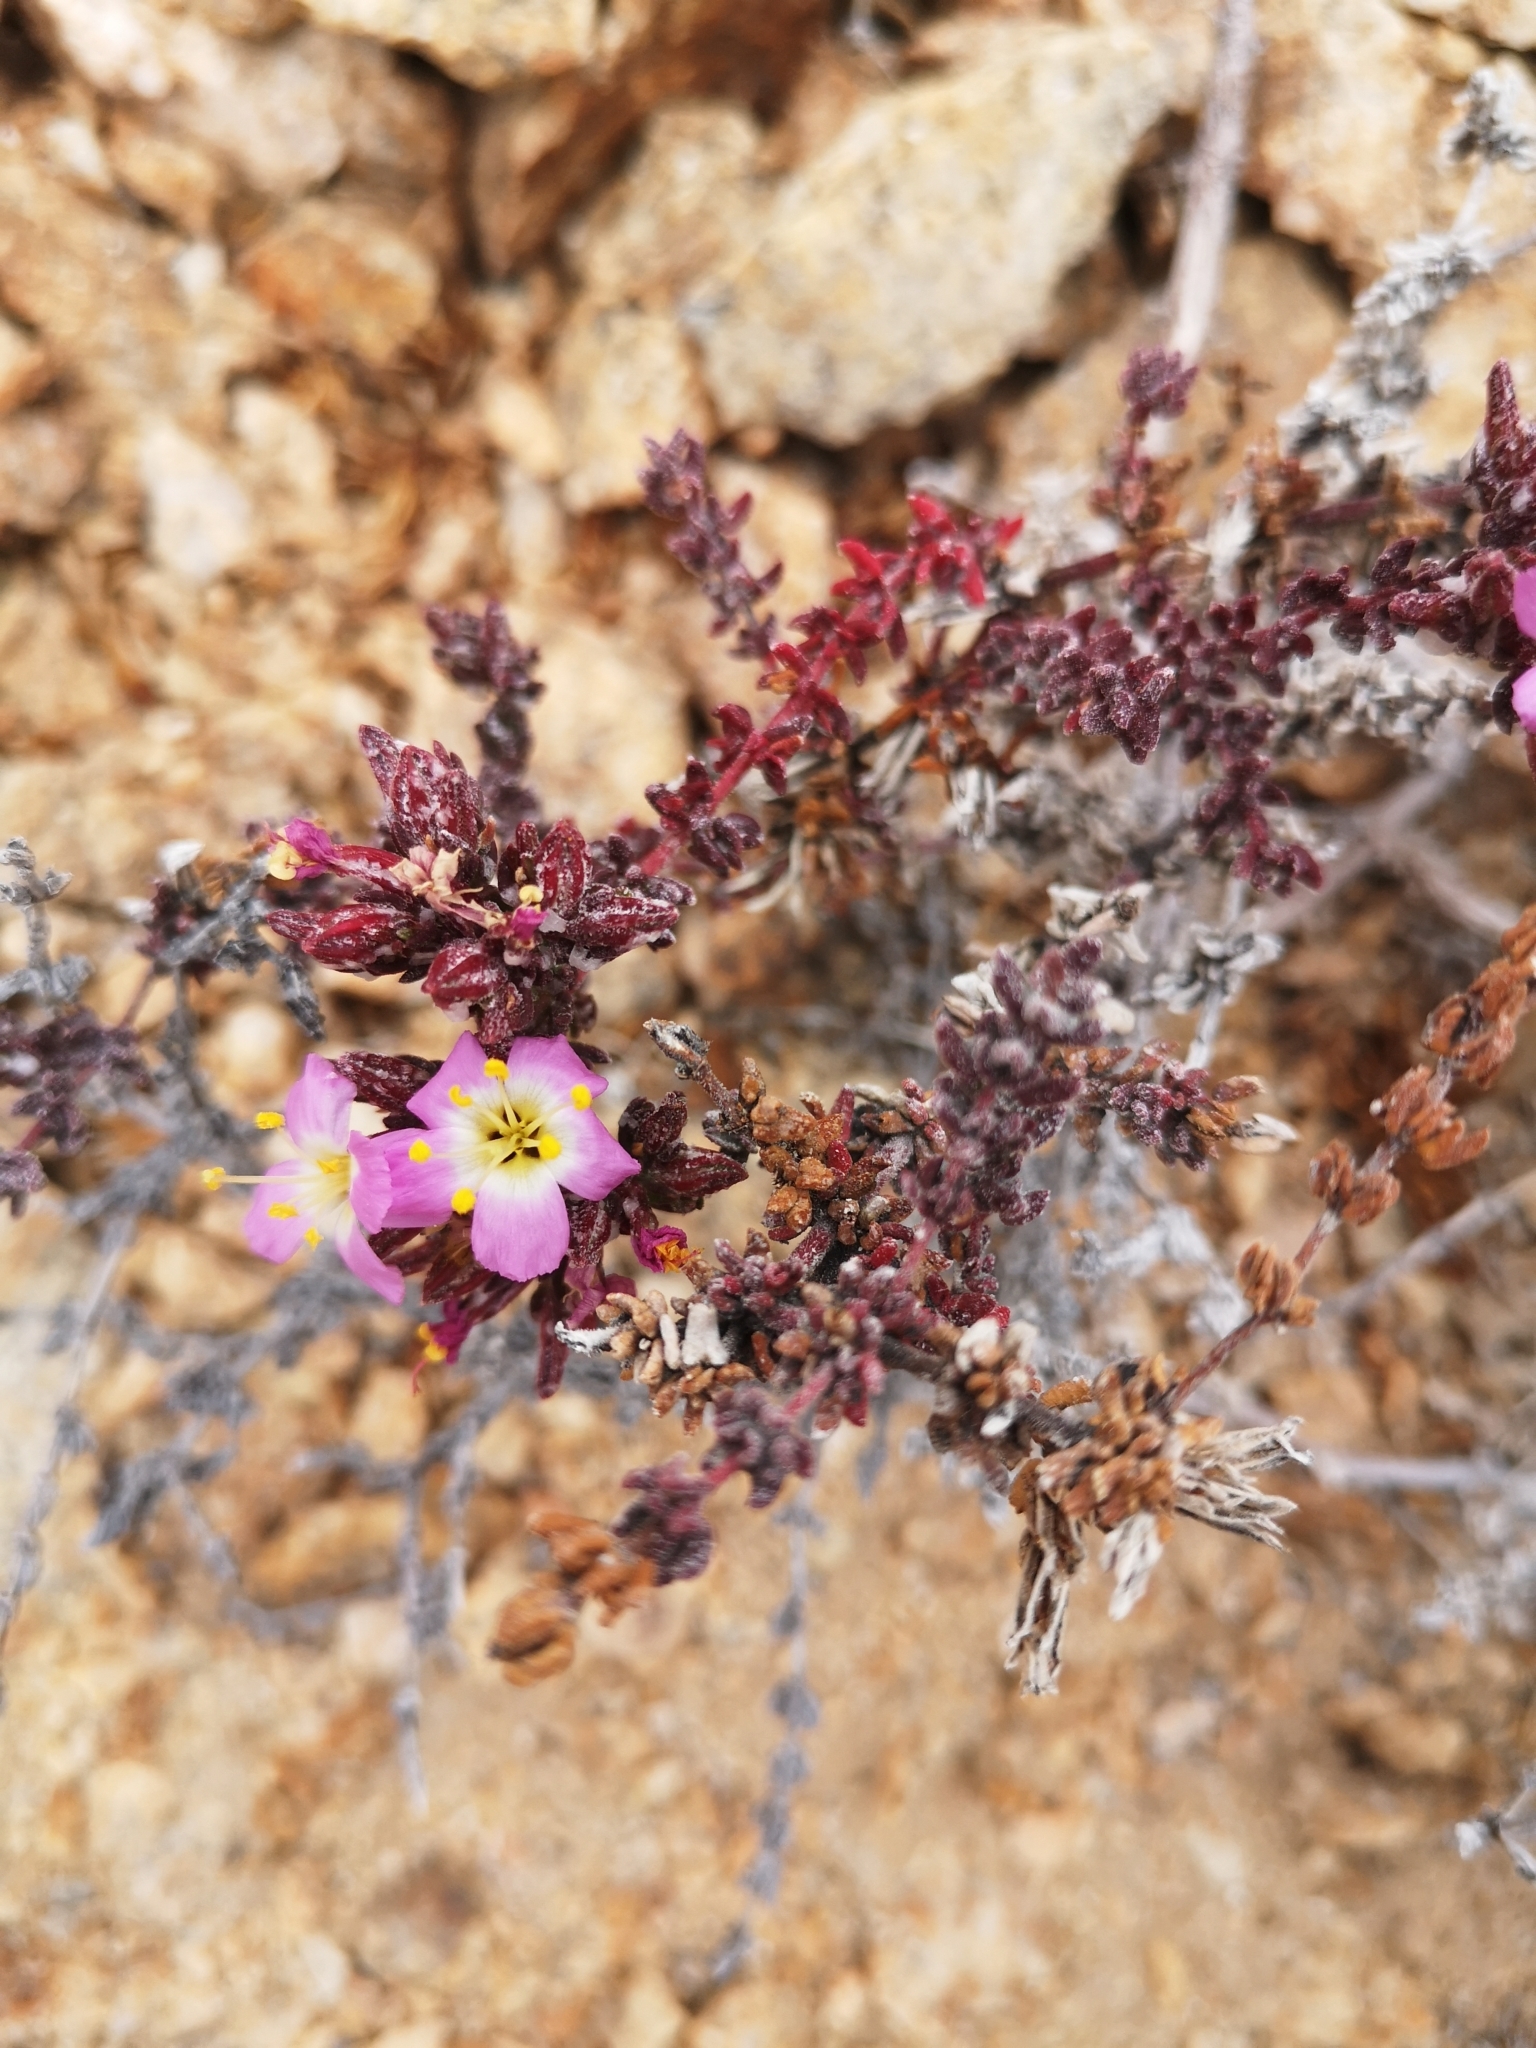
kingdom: Plantae
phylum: Tracheophyta
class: Magnoliopsida
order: Caryophyllales
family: Frankeniaceae
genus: Frankenia
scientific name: Frankenia chilensis
